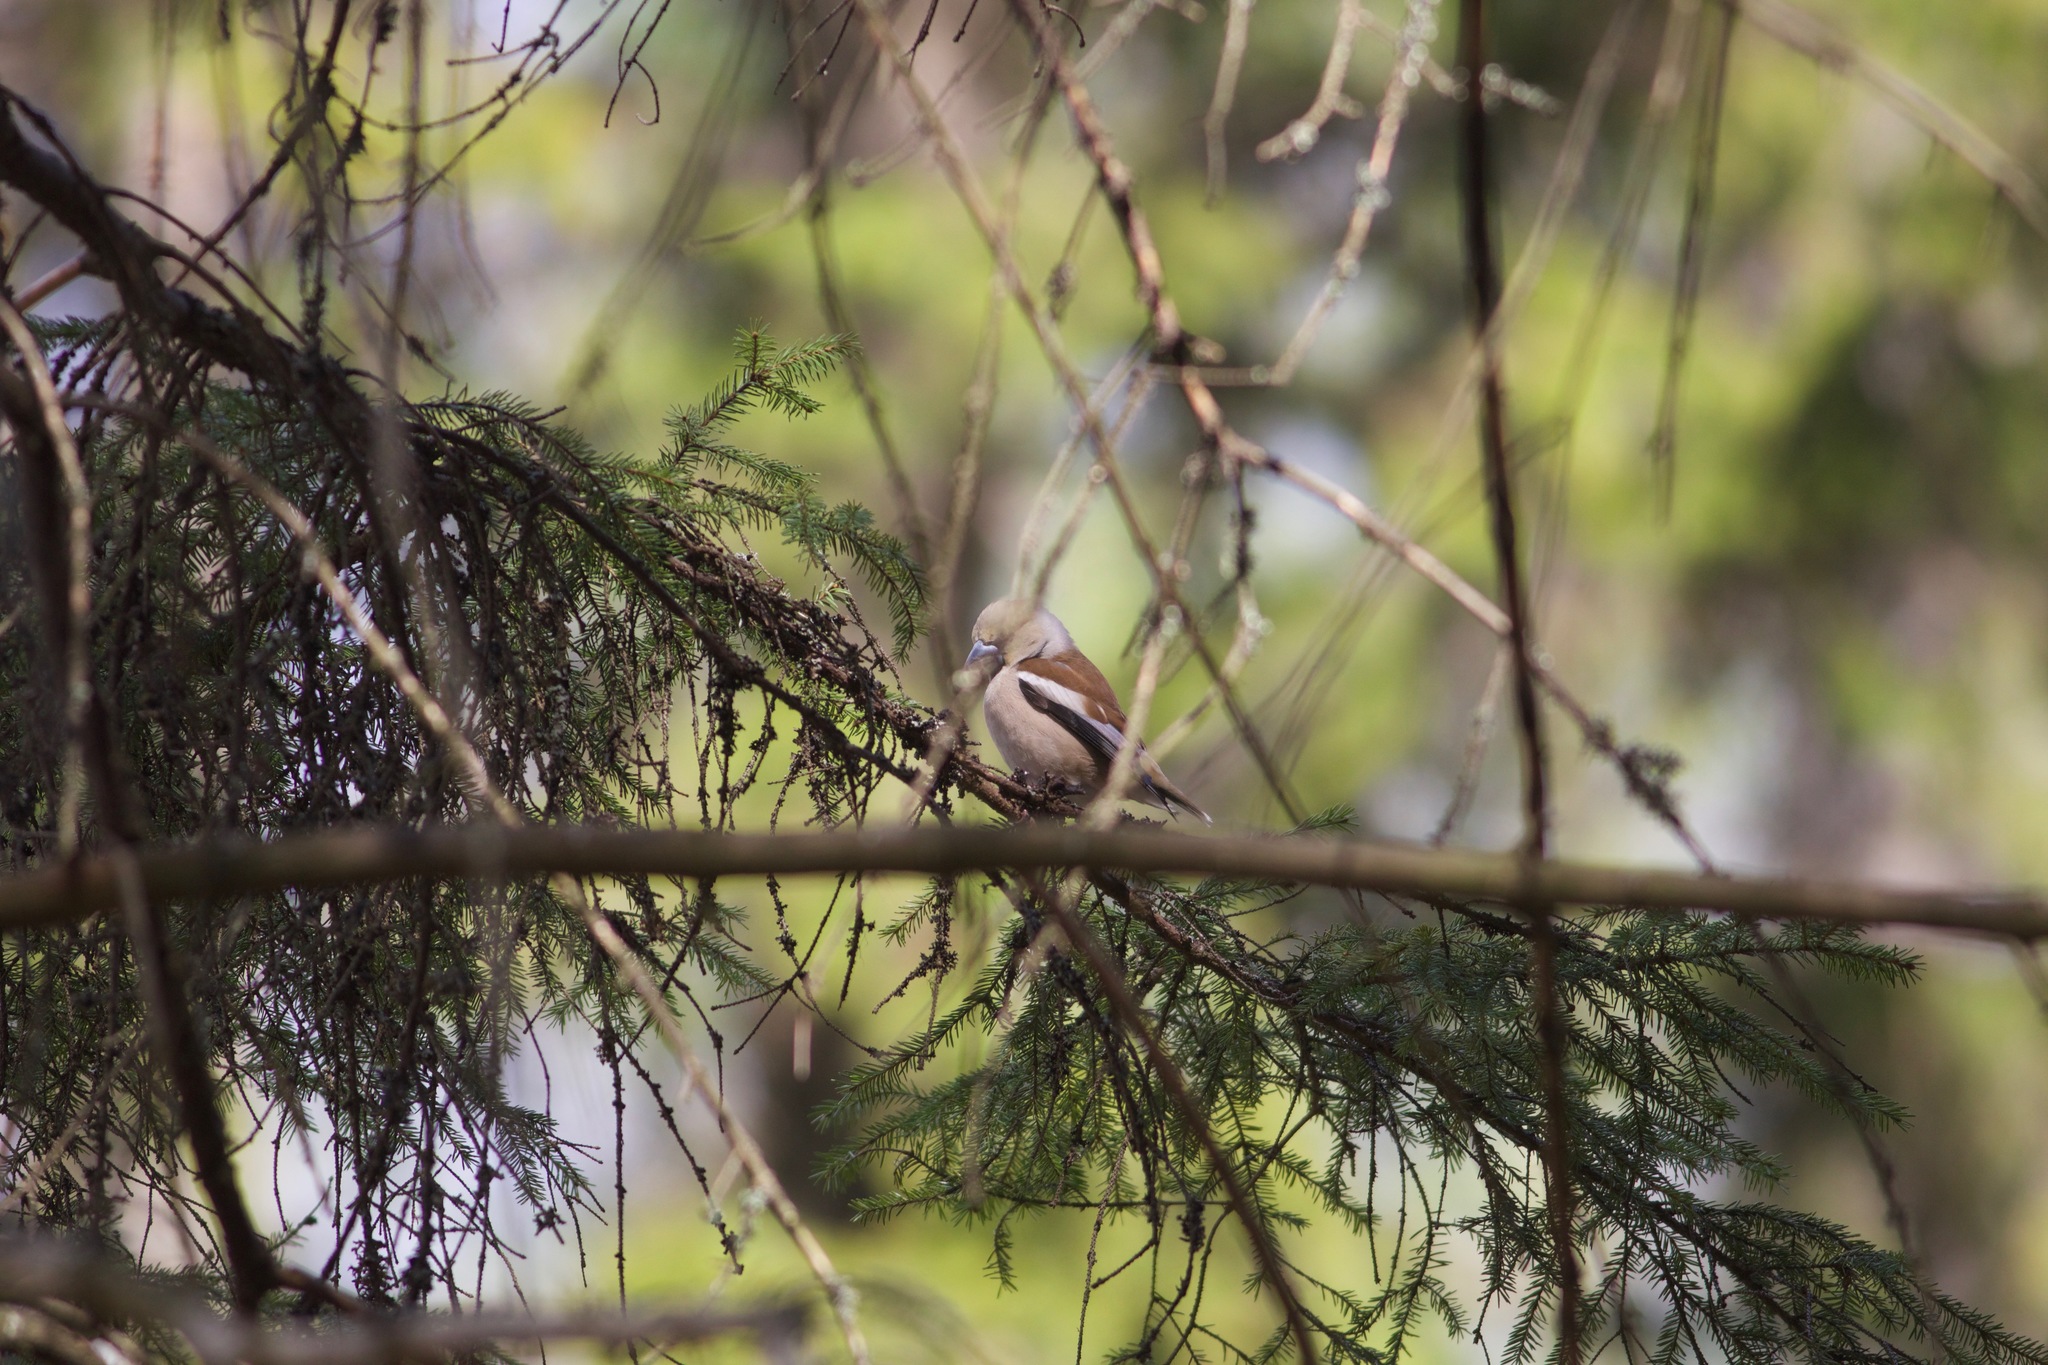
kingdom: Animalia
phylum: Chordata
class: Aves
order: Passeriformes
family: Fringillidae
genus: Coccothraustes
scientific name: Coccothraustes coccothraustes
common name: Hawfinch
